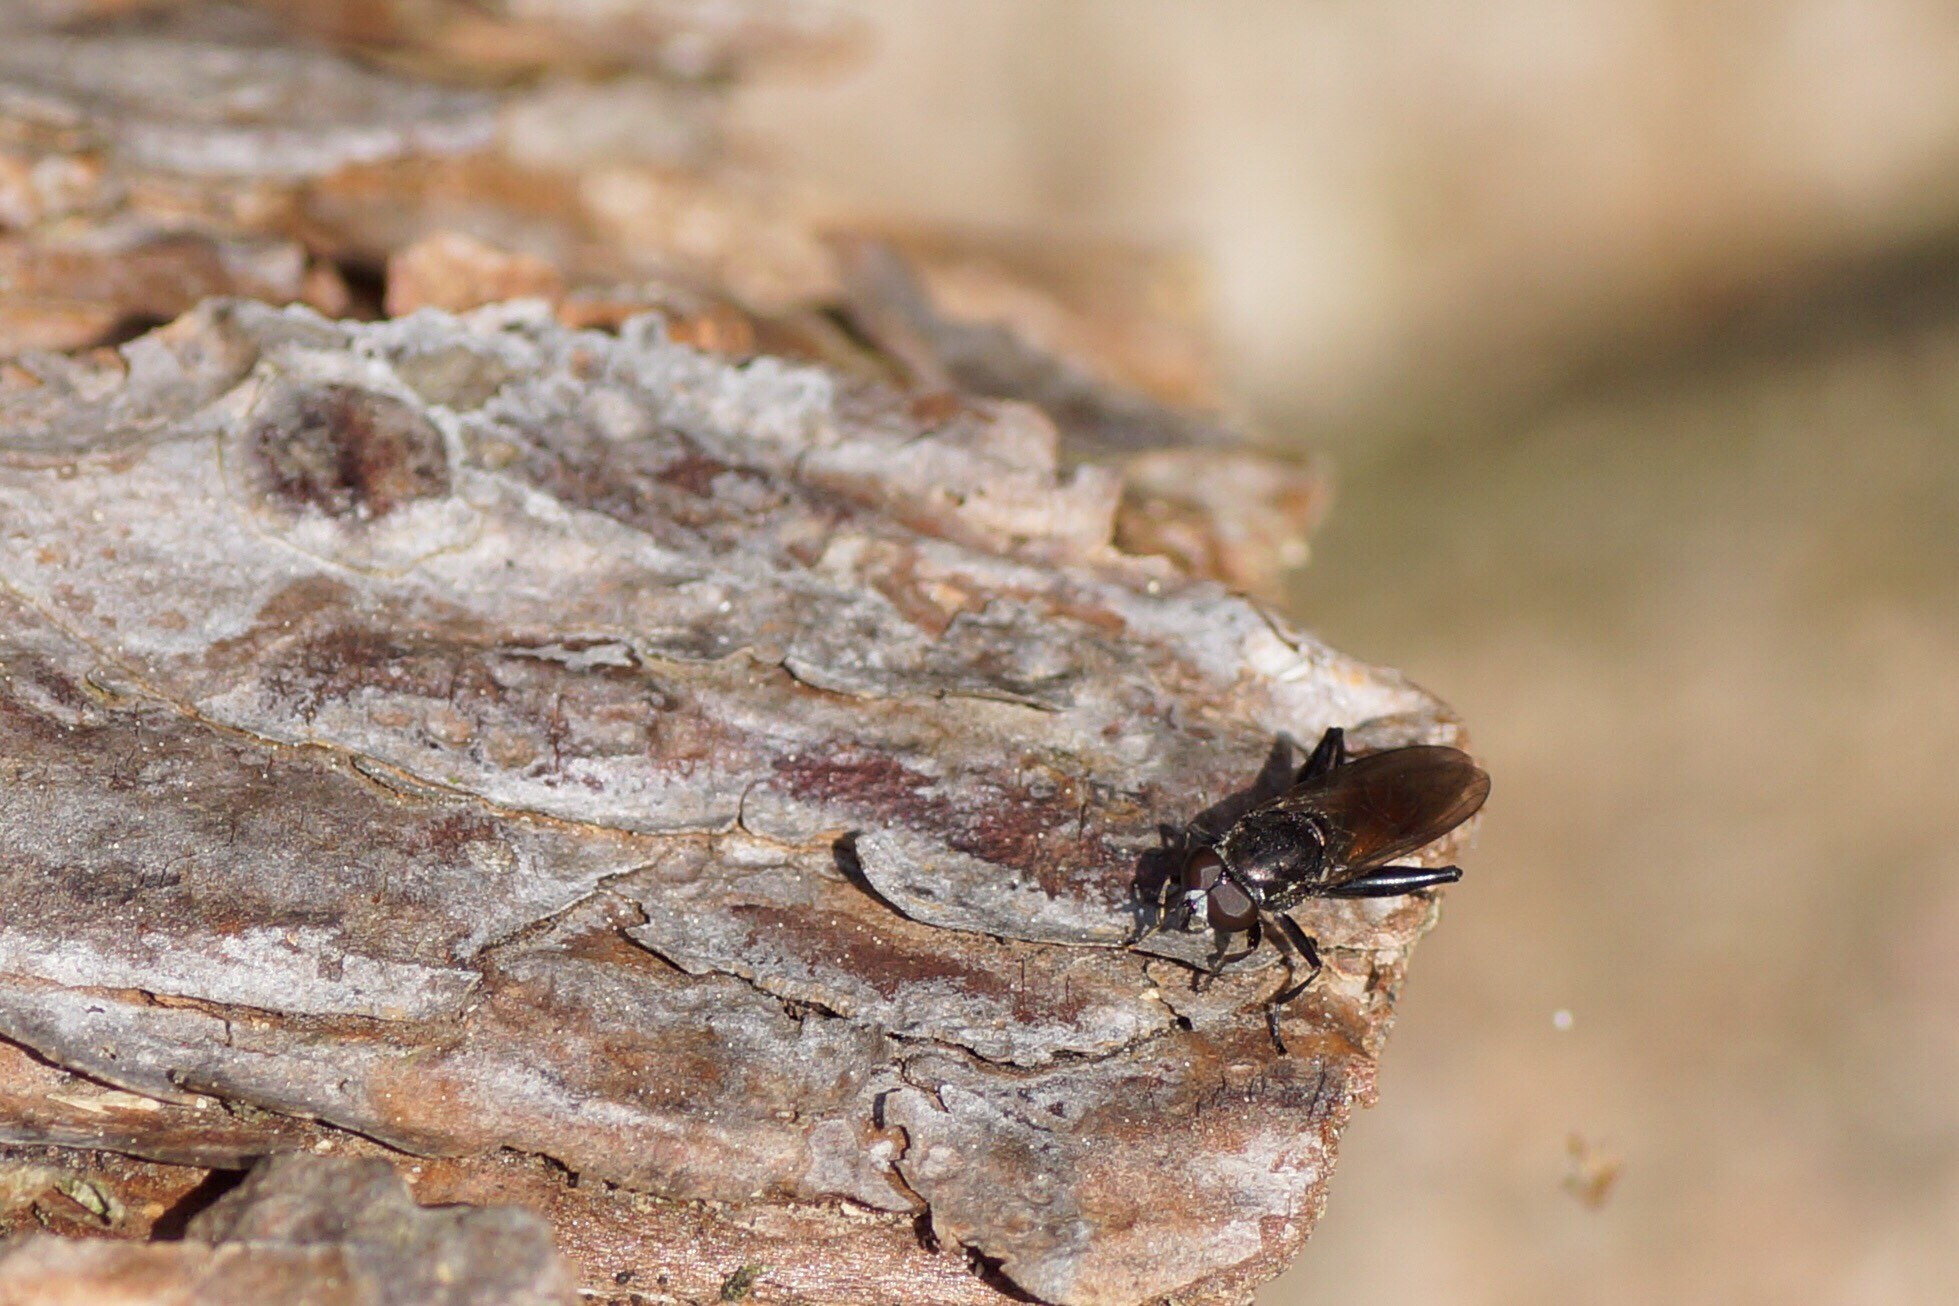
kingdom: Animalia
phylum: Arthropoda
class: Insecta
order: Diptera
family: Syrphidae
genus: Chalcosyrphus
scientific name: Chalcosyrphus piger
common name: Short-haired leafwalker
